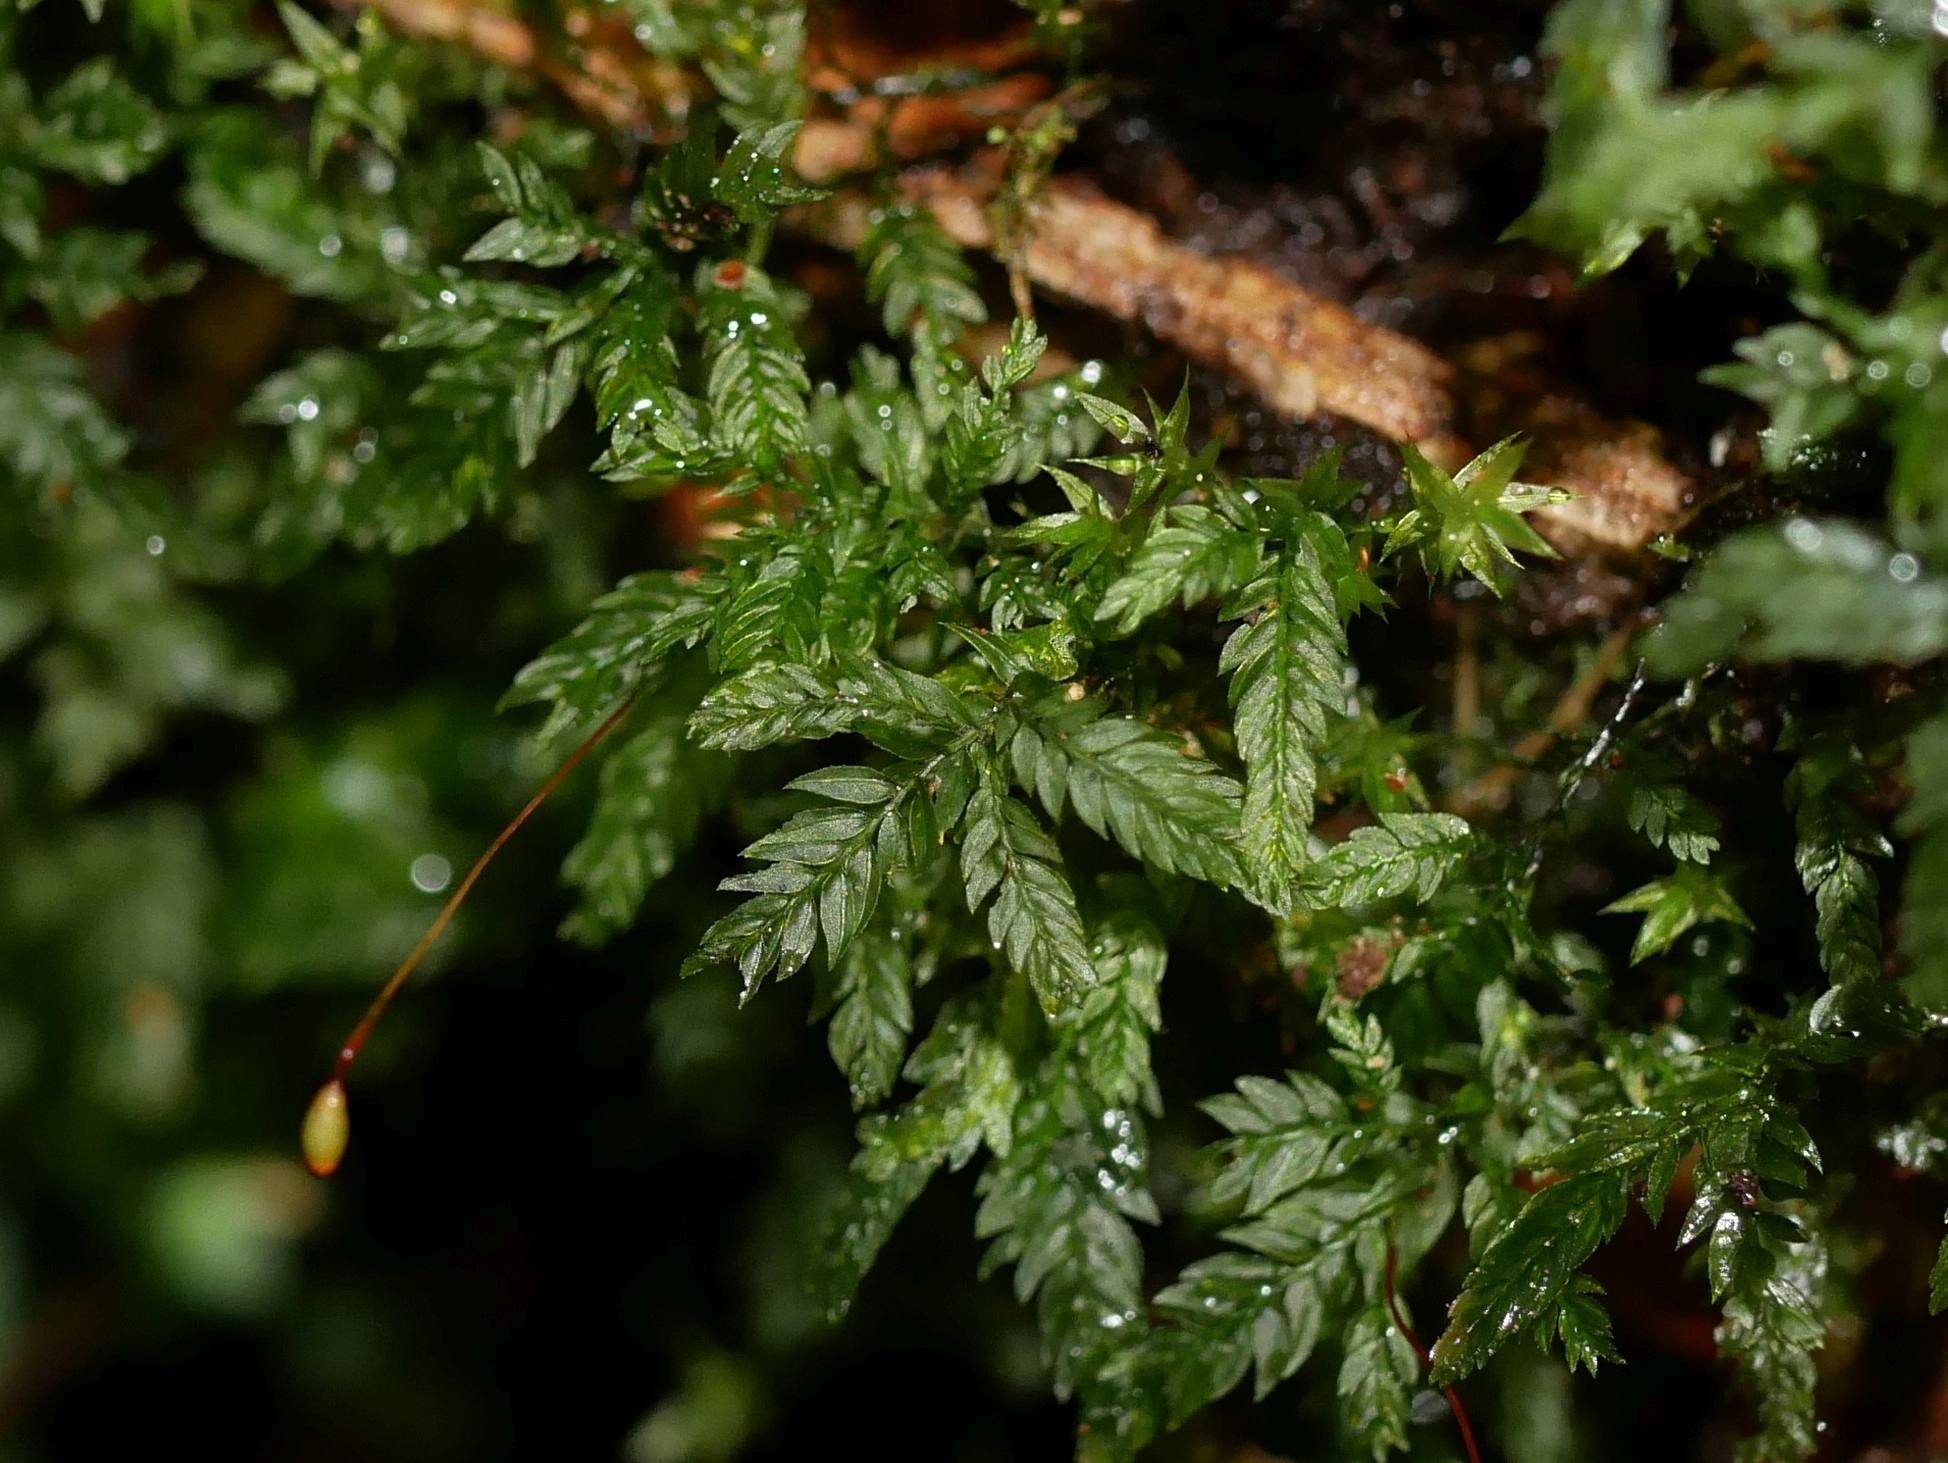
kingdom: Plantae
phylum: Bryophyta
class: Bryopsida
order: Aulacomniales
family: Aulacomniaceae
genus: Hymenodontopsis
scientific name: Hymenodontopsis bifaria
